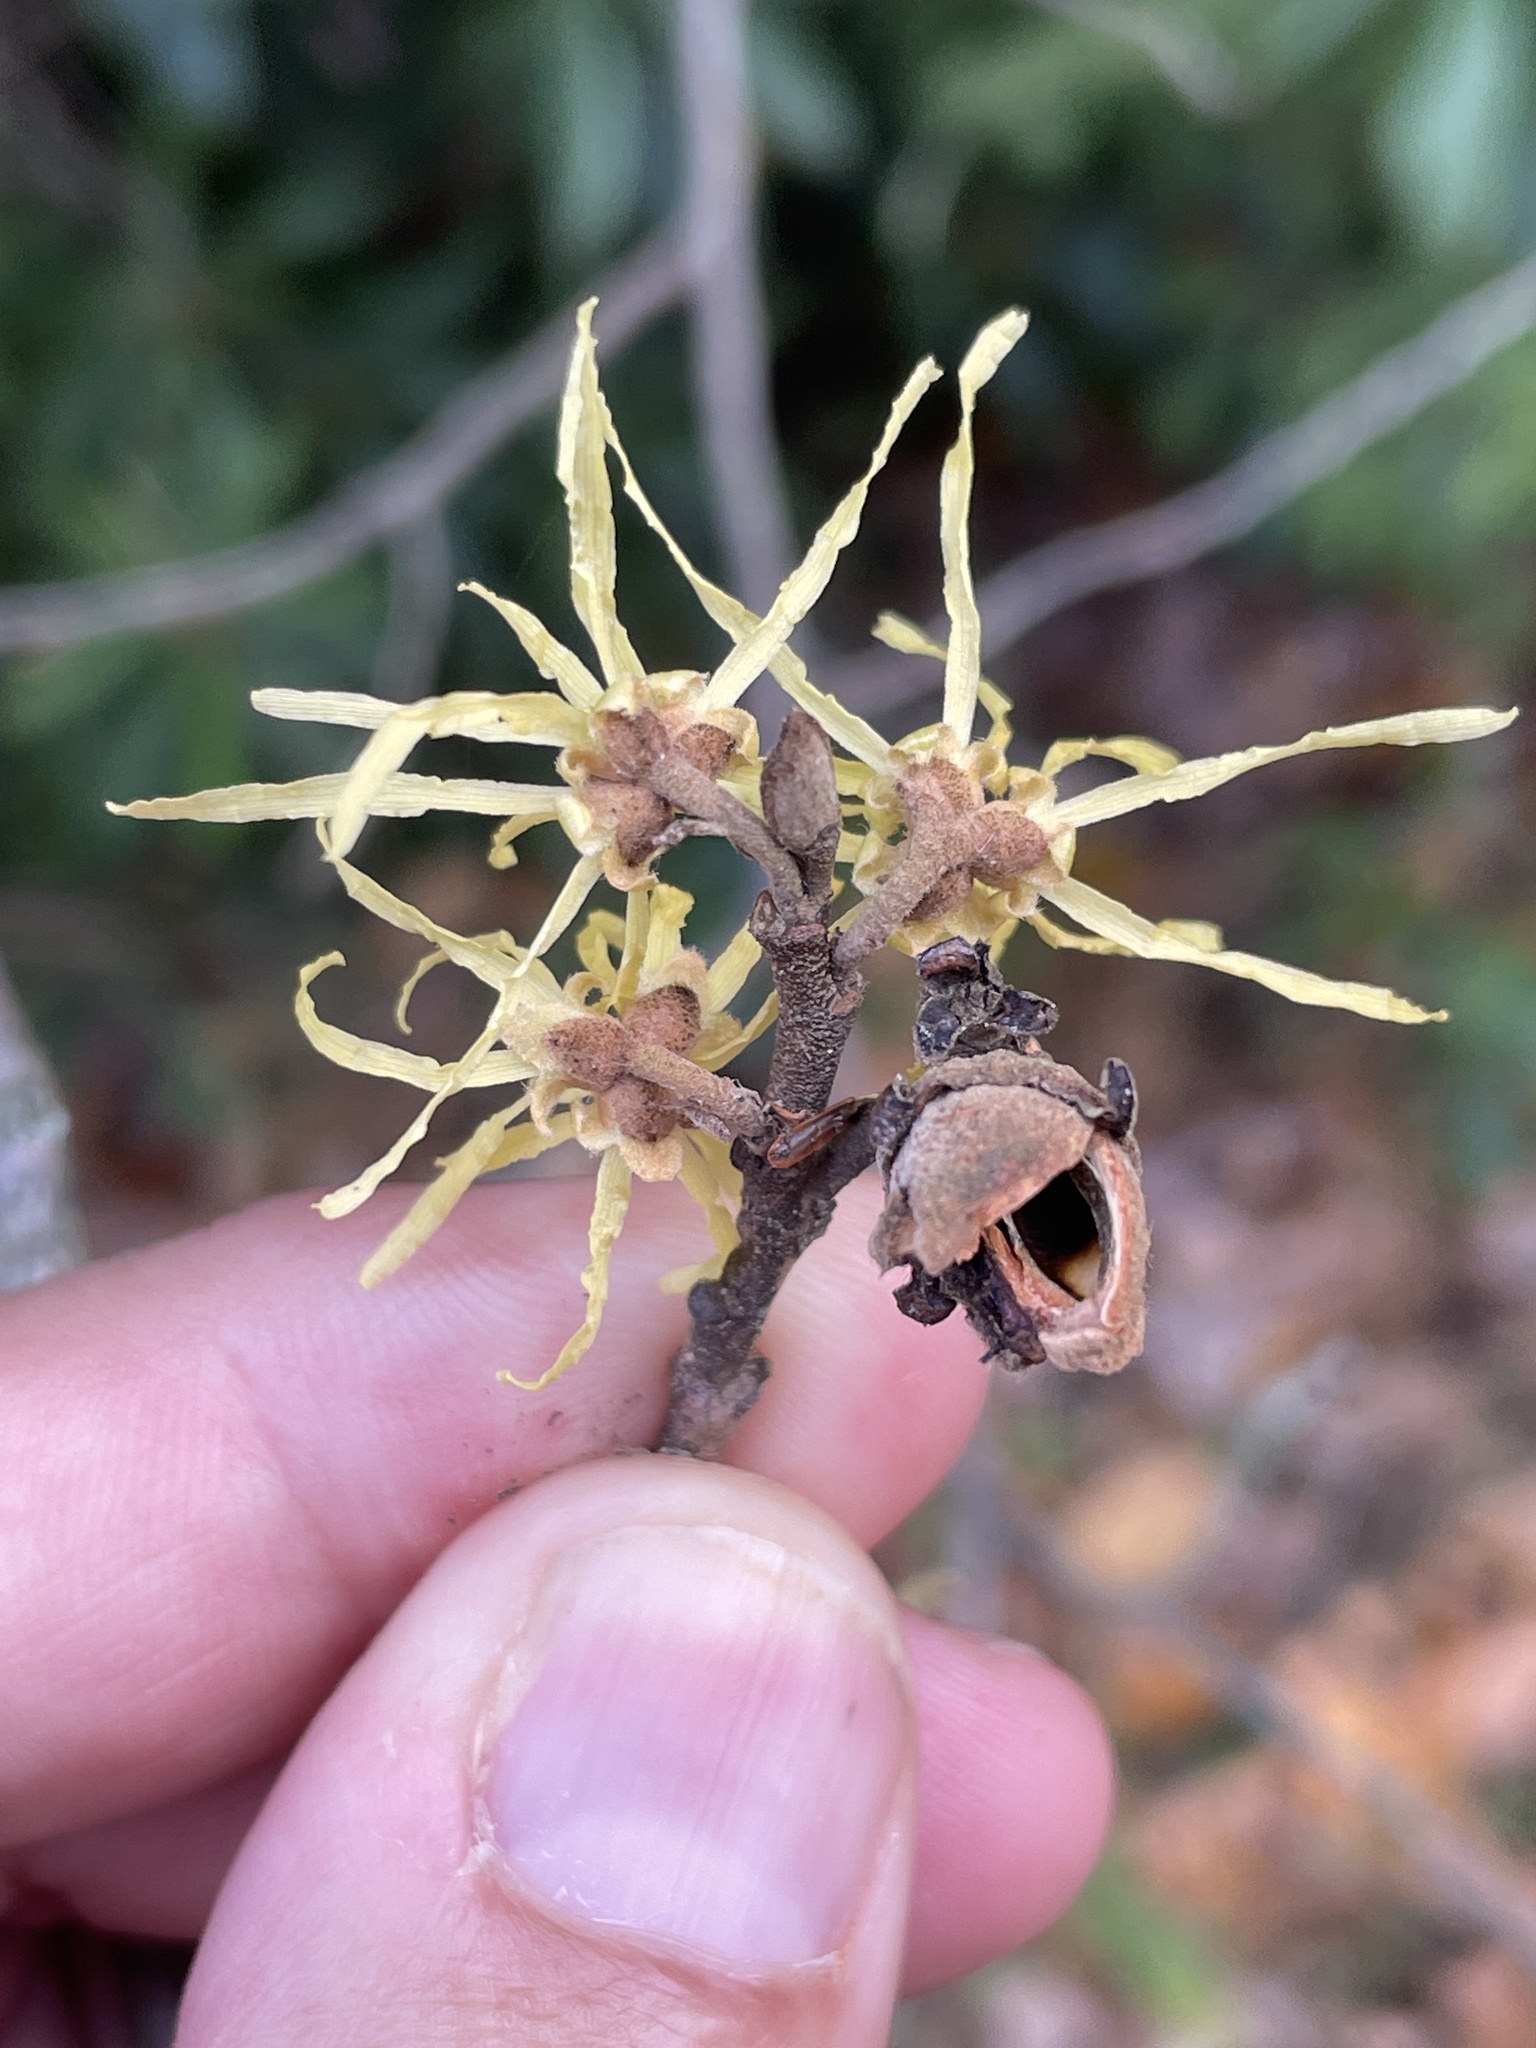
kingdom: Plantae
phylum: Tracheophyta
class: Magnoliopsida
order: Saxifragales
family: Hamamelidaceae
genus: Hamamelis
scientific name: Hamamelis virginiana
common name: Witch-hazel
